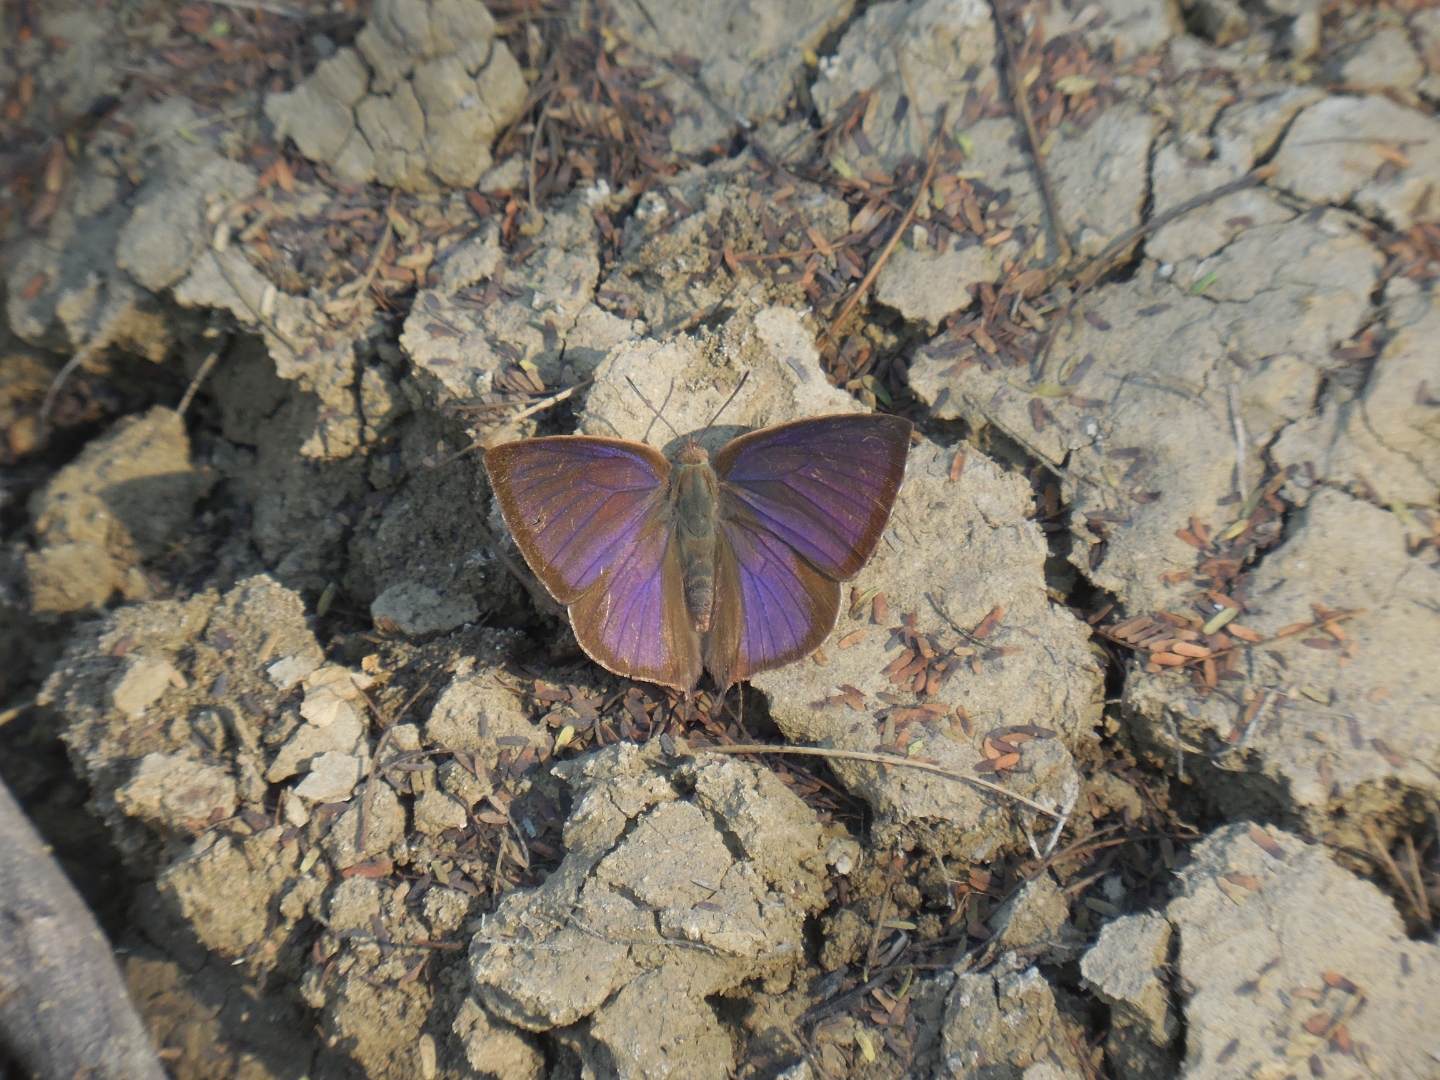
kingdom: Animalia
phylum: Arthropoda
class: Insecta
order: Lepidoptera
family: Lycaenidae
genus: Amblypodia
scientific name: Amblypodia anita
